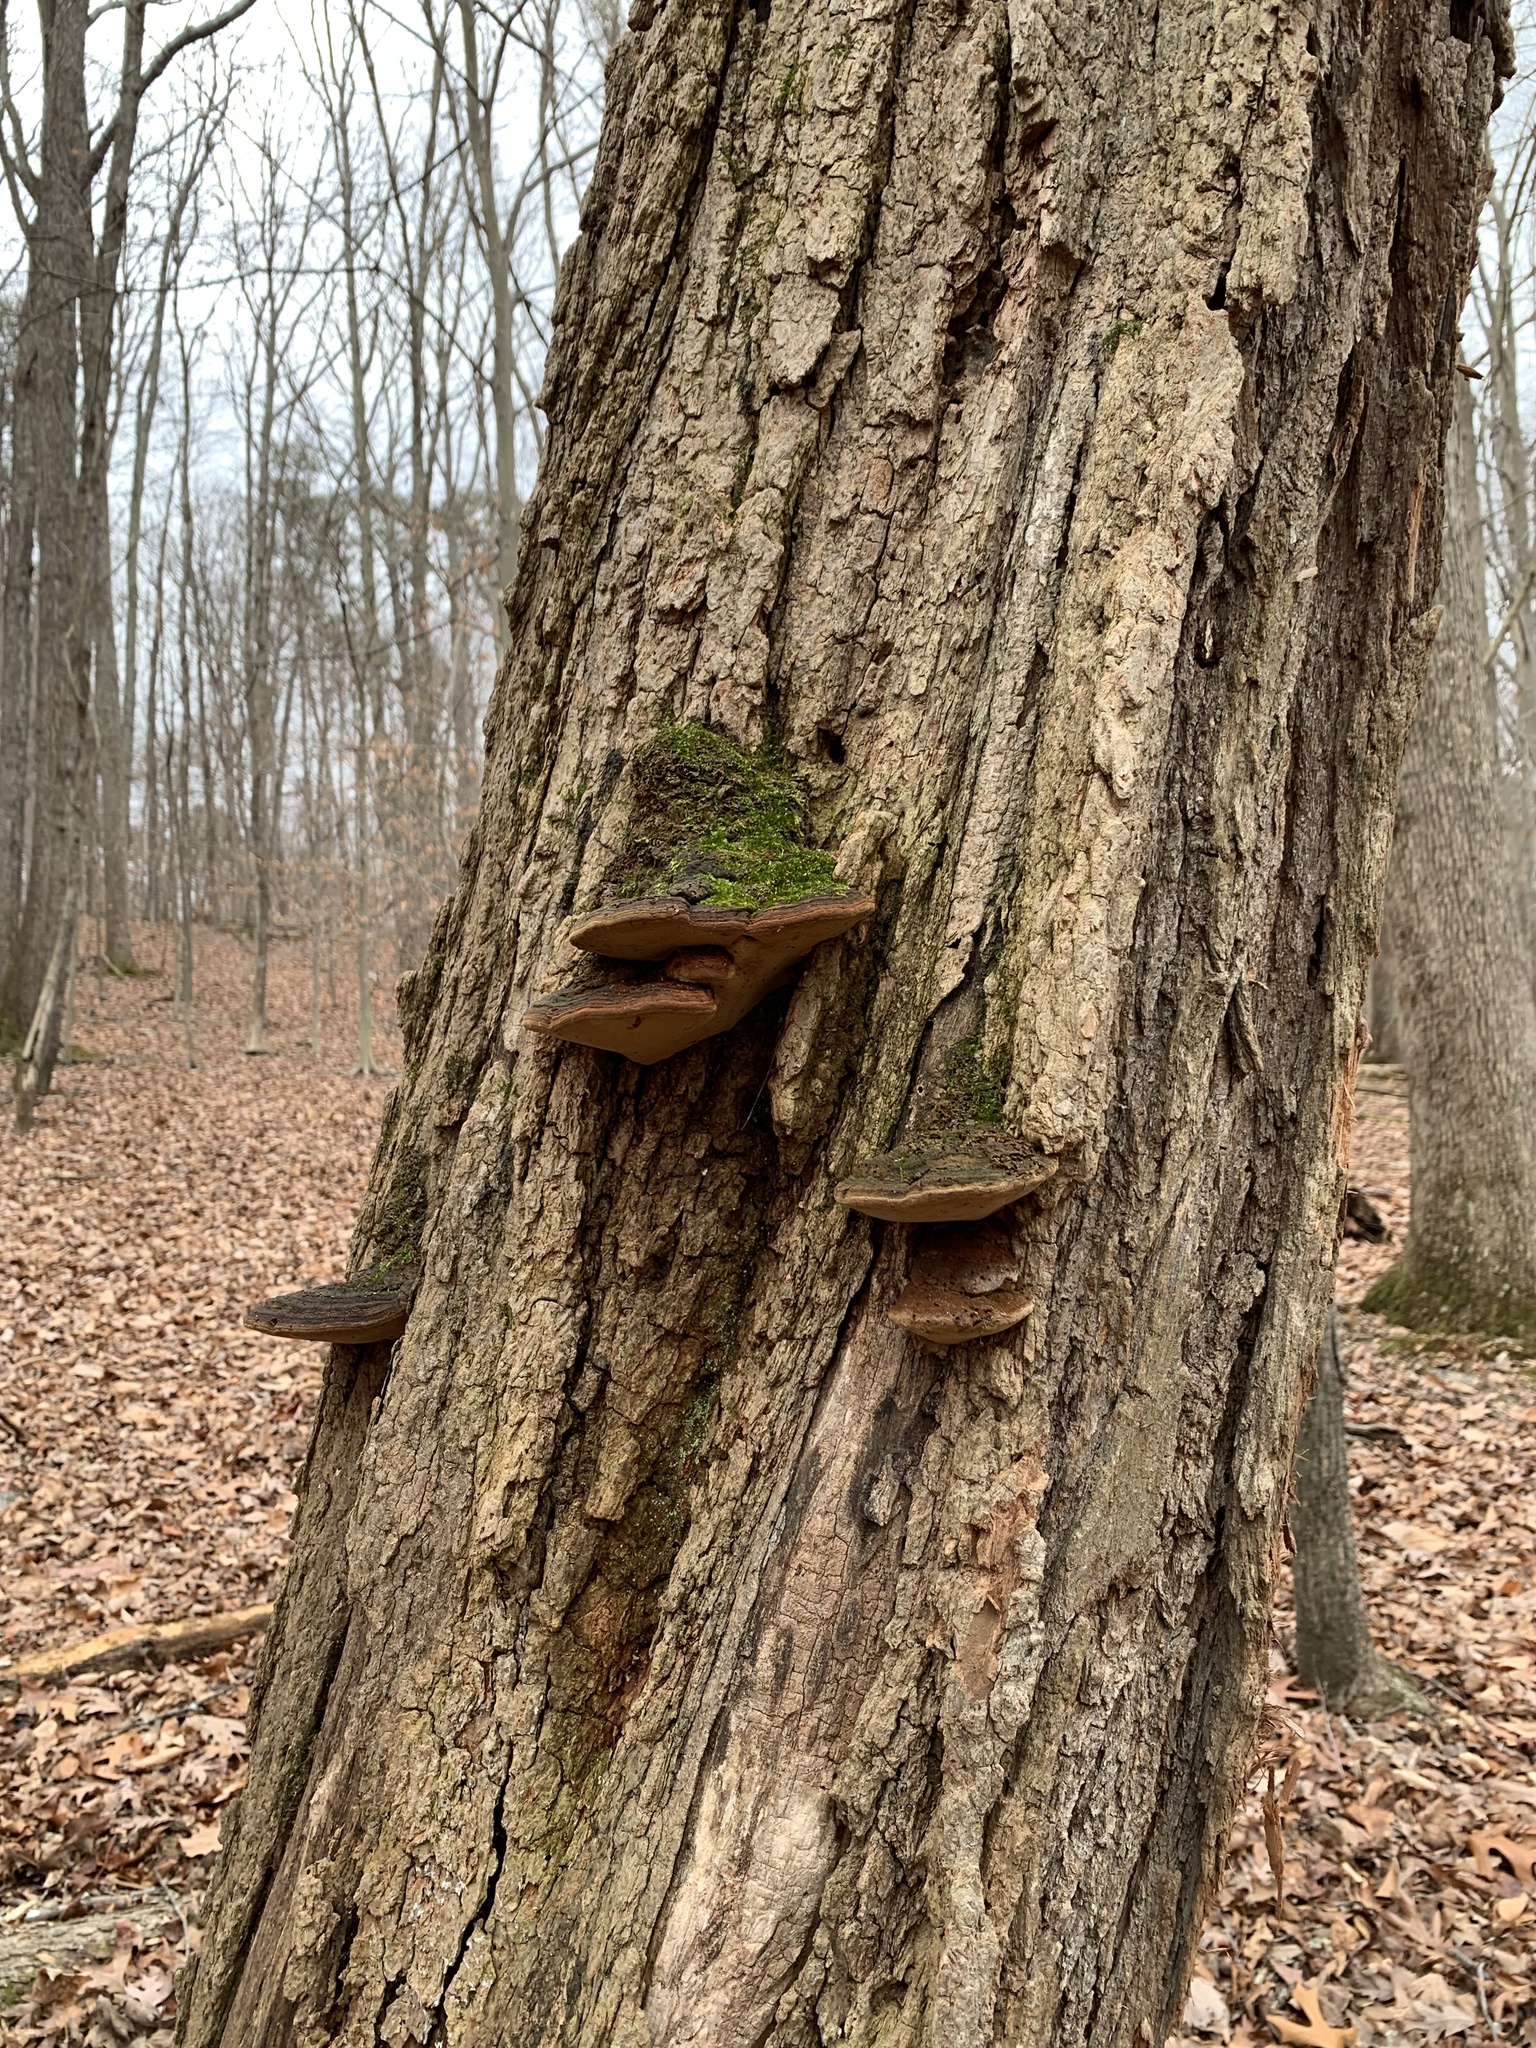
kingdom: Fungi
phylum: Basidiomycota
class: Agaricomycetes
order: Hymenochaetales
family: Hymenochaetaceae
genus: Phellinus
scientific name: Phellinus robiniae
